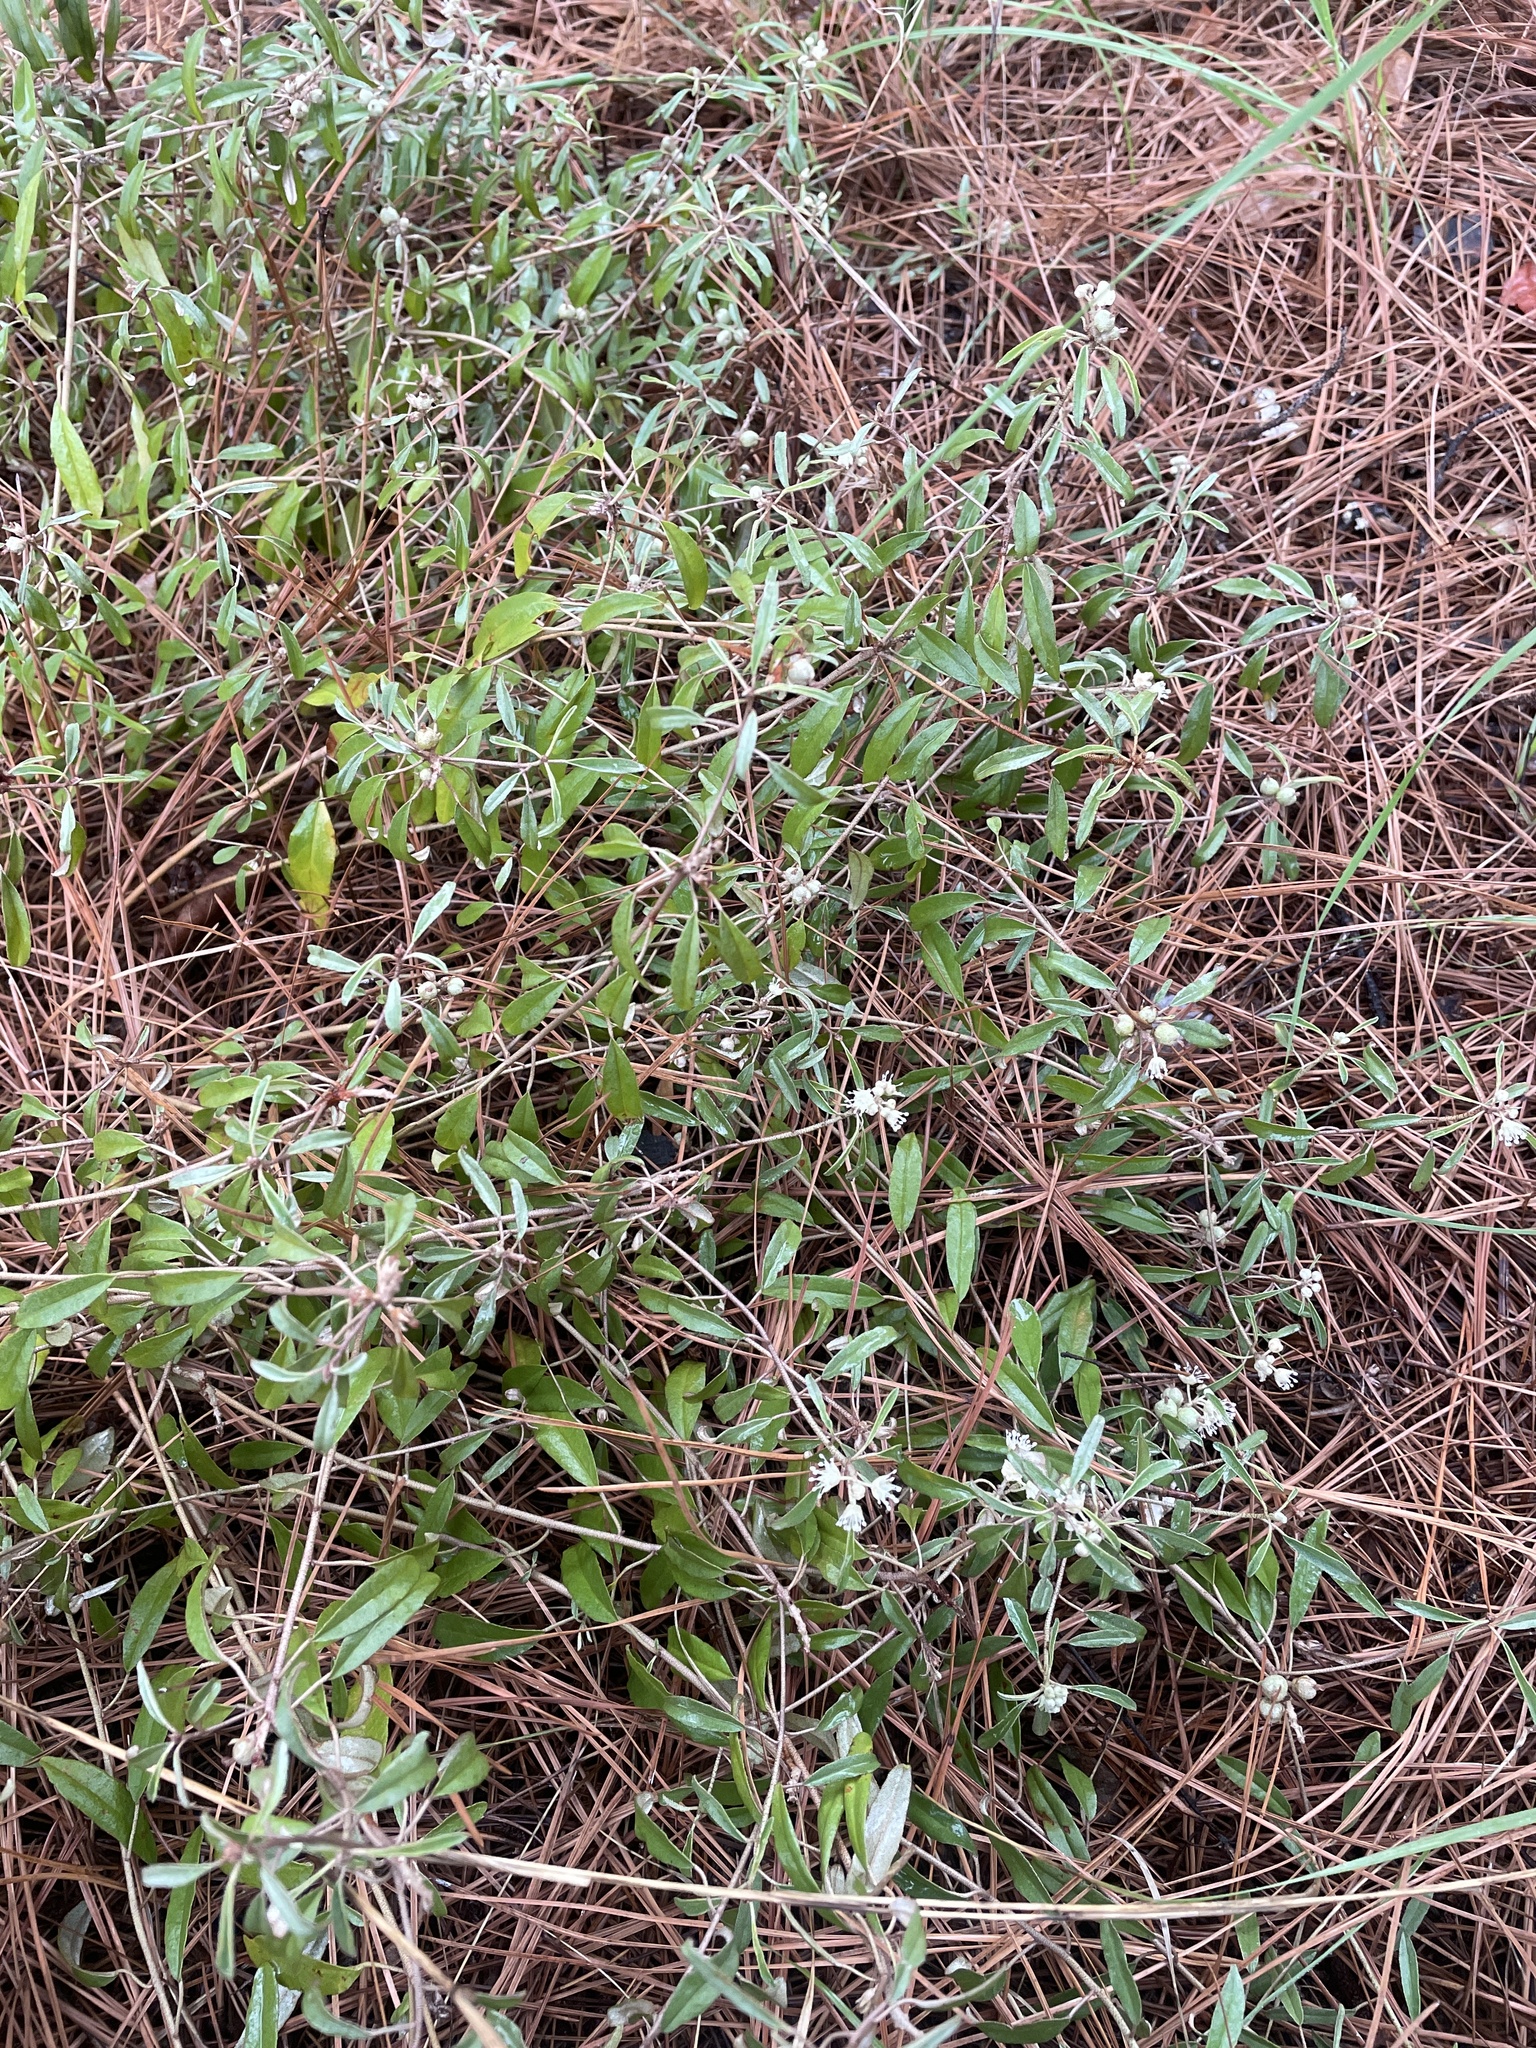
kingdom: Plantae
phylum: Tracheophyta
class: Magnoliopsida
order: Malpighiales
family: Euphorbiaceae
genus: Croton
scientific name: Croton argyranthemus
